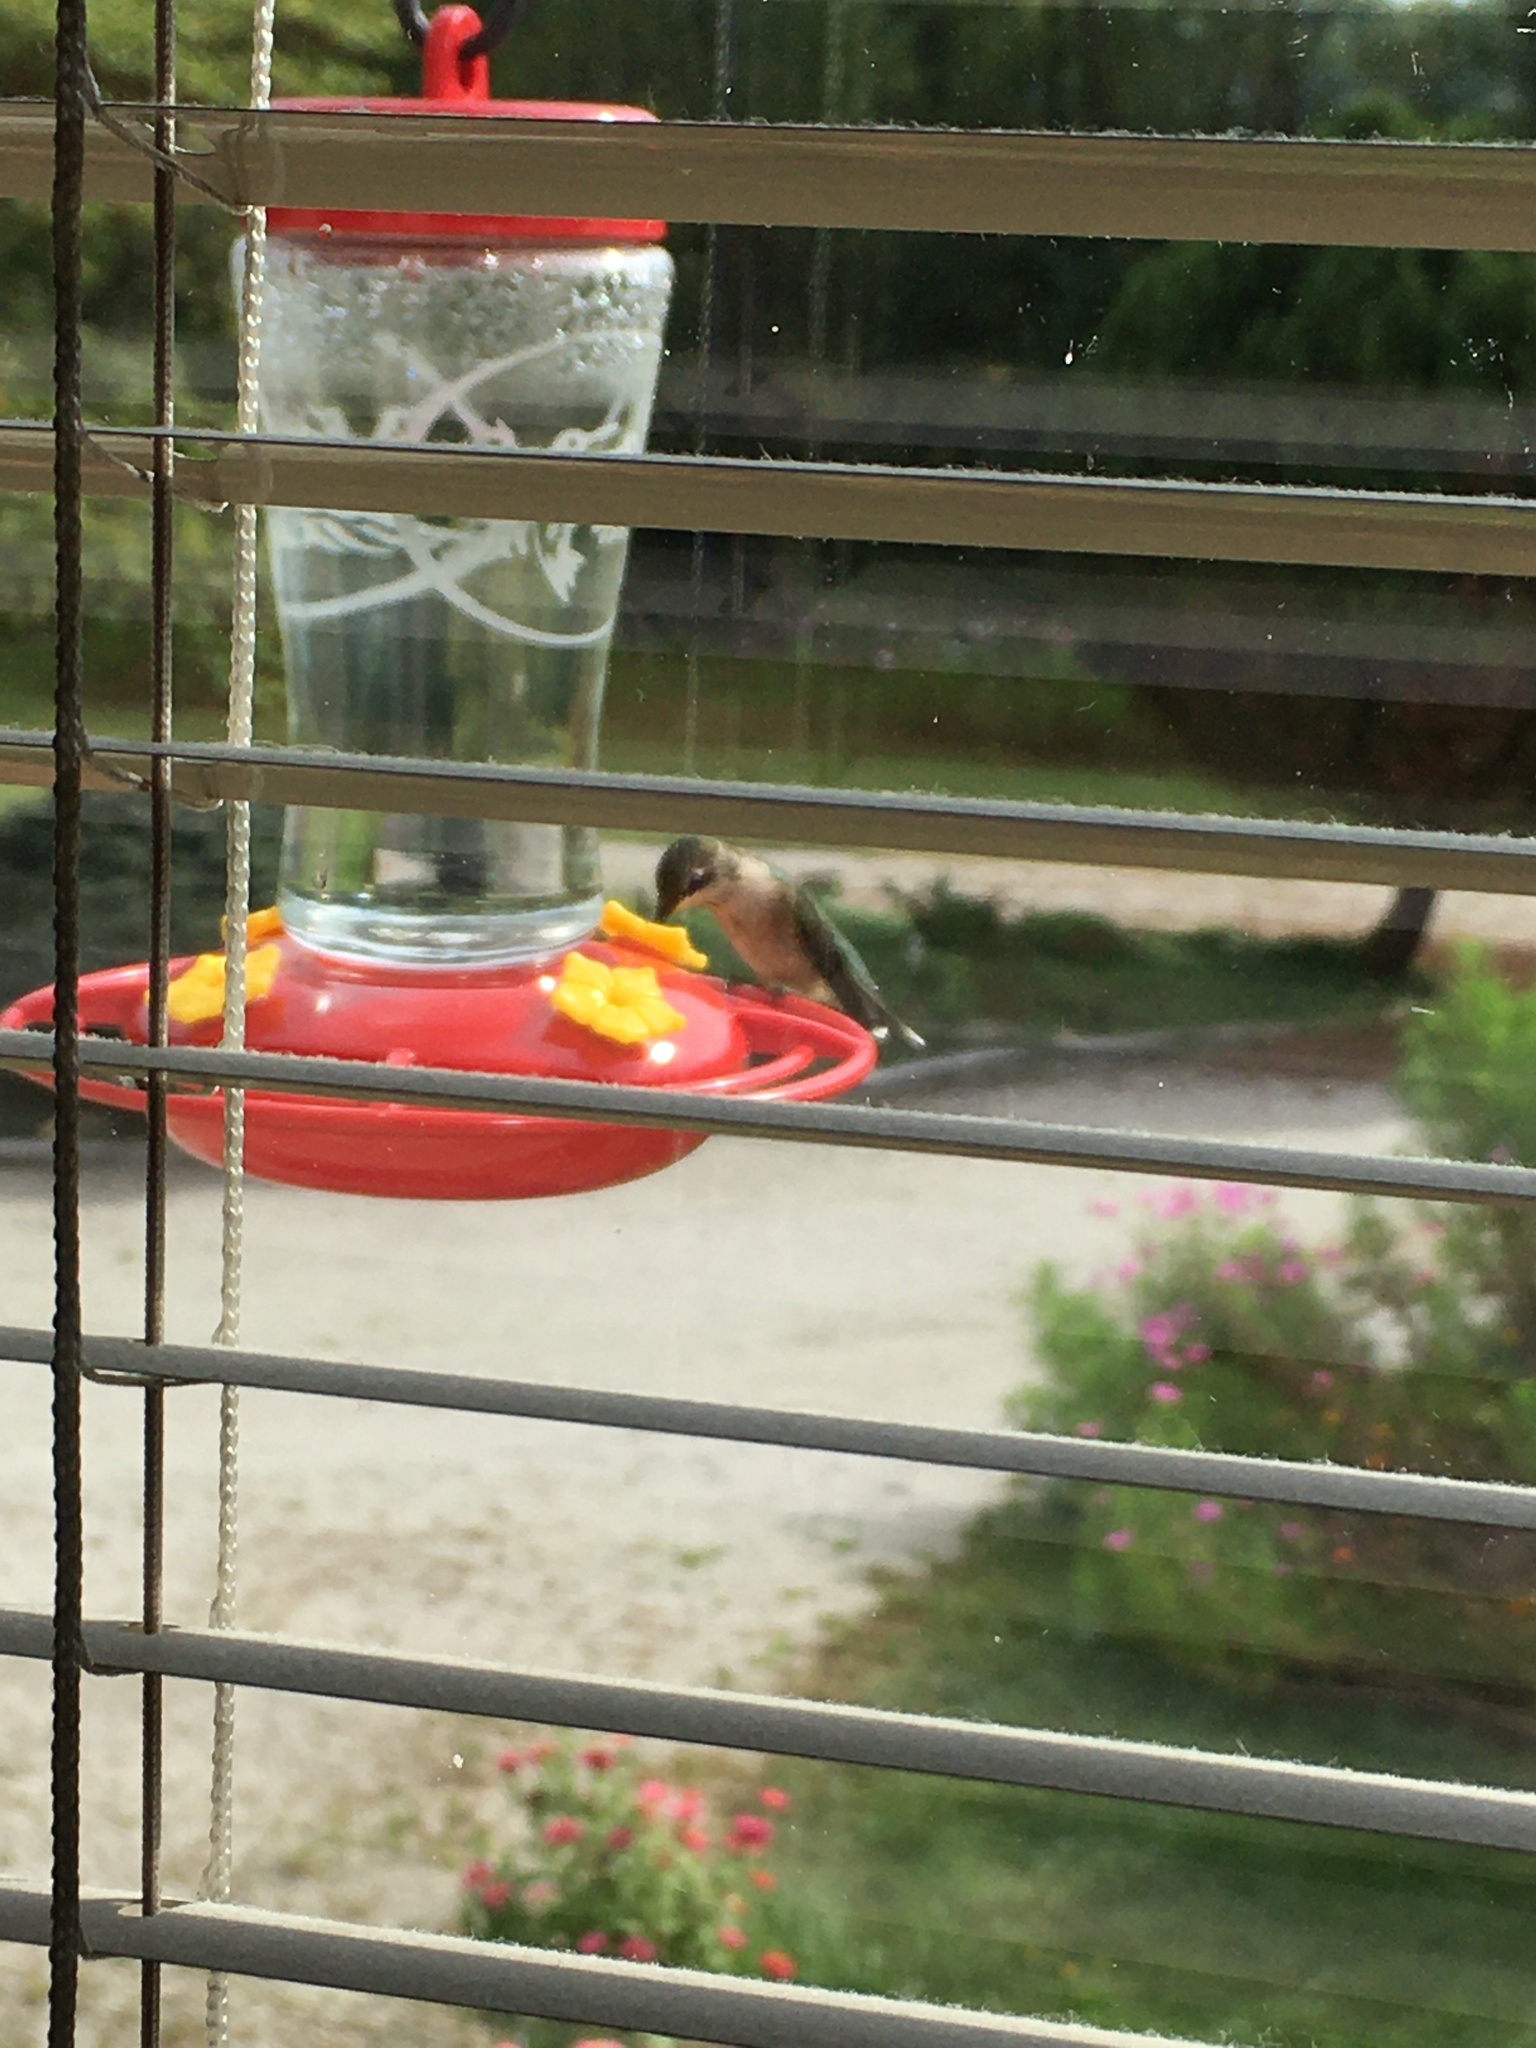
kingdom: Animalia
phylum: Chordata
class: Aves
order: Apodiformes
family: Trochilidae
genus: Archilochus
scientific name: Archilochus colubris
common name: Ruby-throated hummingbird
